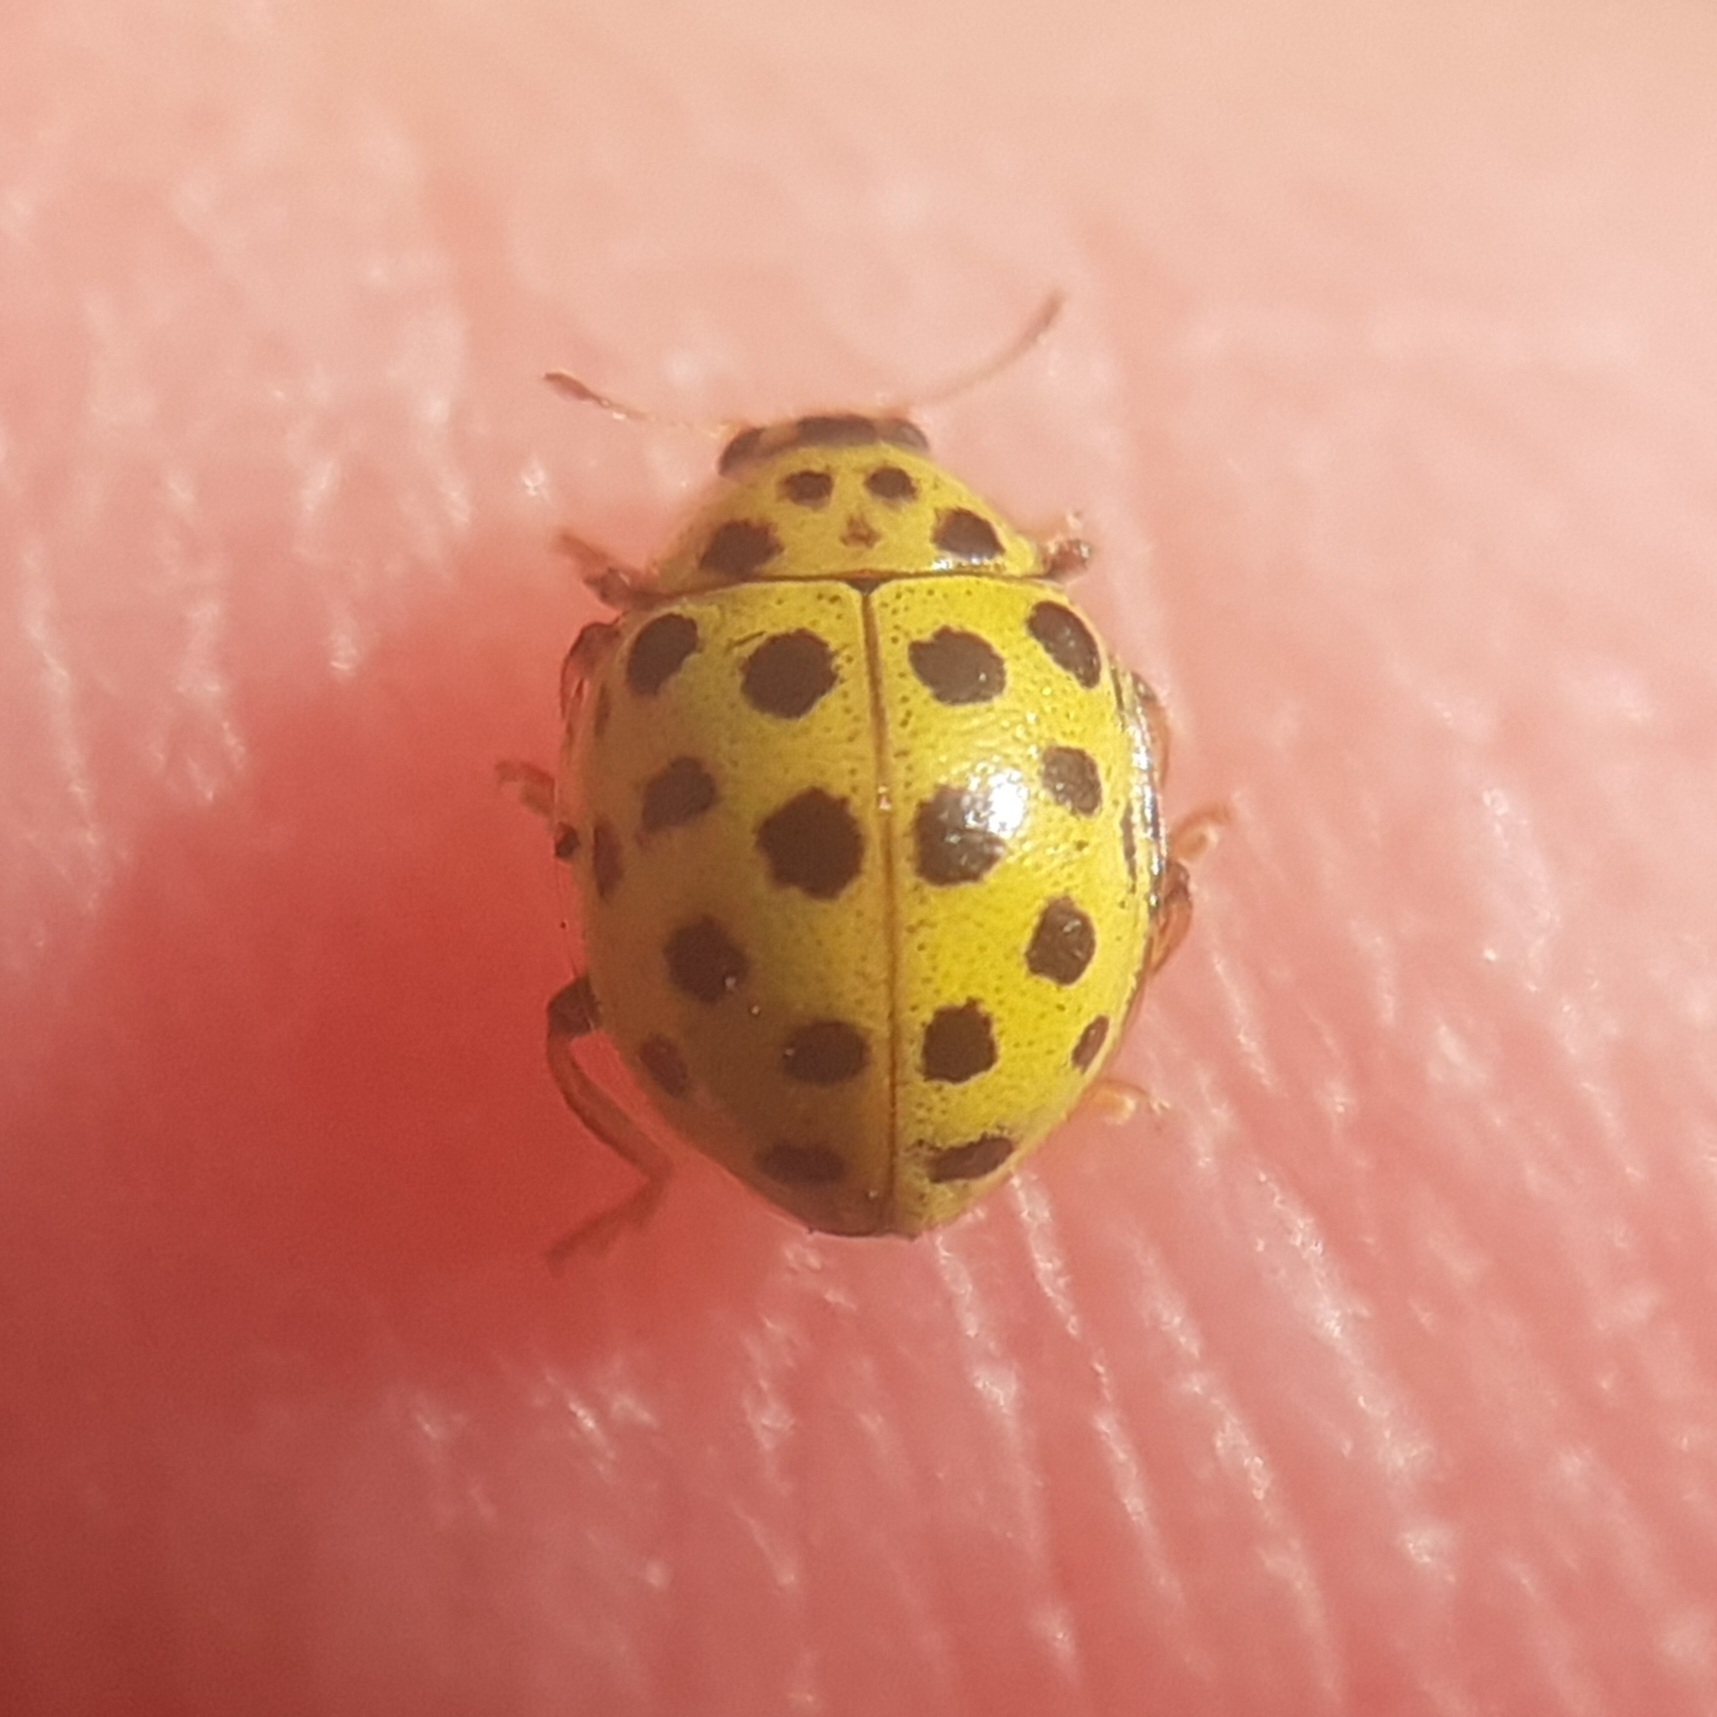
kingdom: Animalia
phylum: Arthropoda
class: Insecta
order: Coleoptera
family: Coccinellidae
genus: Psyllobora
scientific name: Psyllobora vigintiduopunctata
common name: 22-spot ladybird
